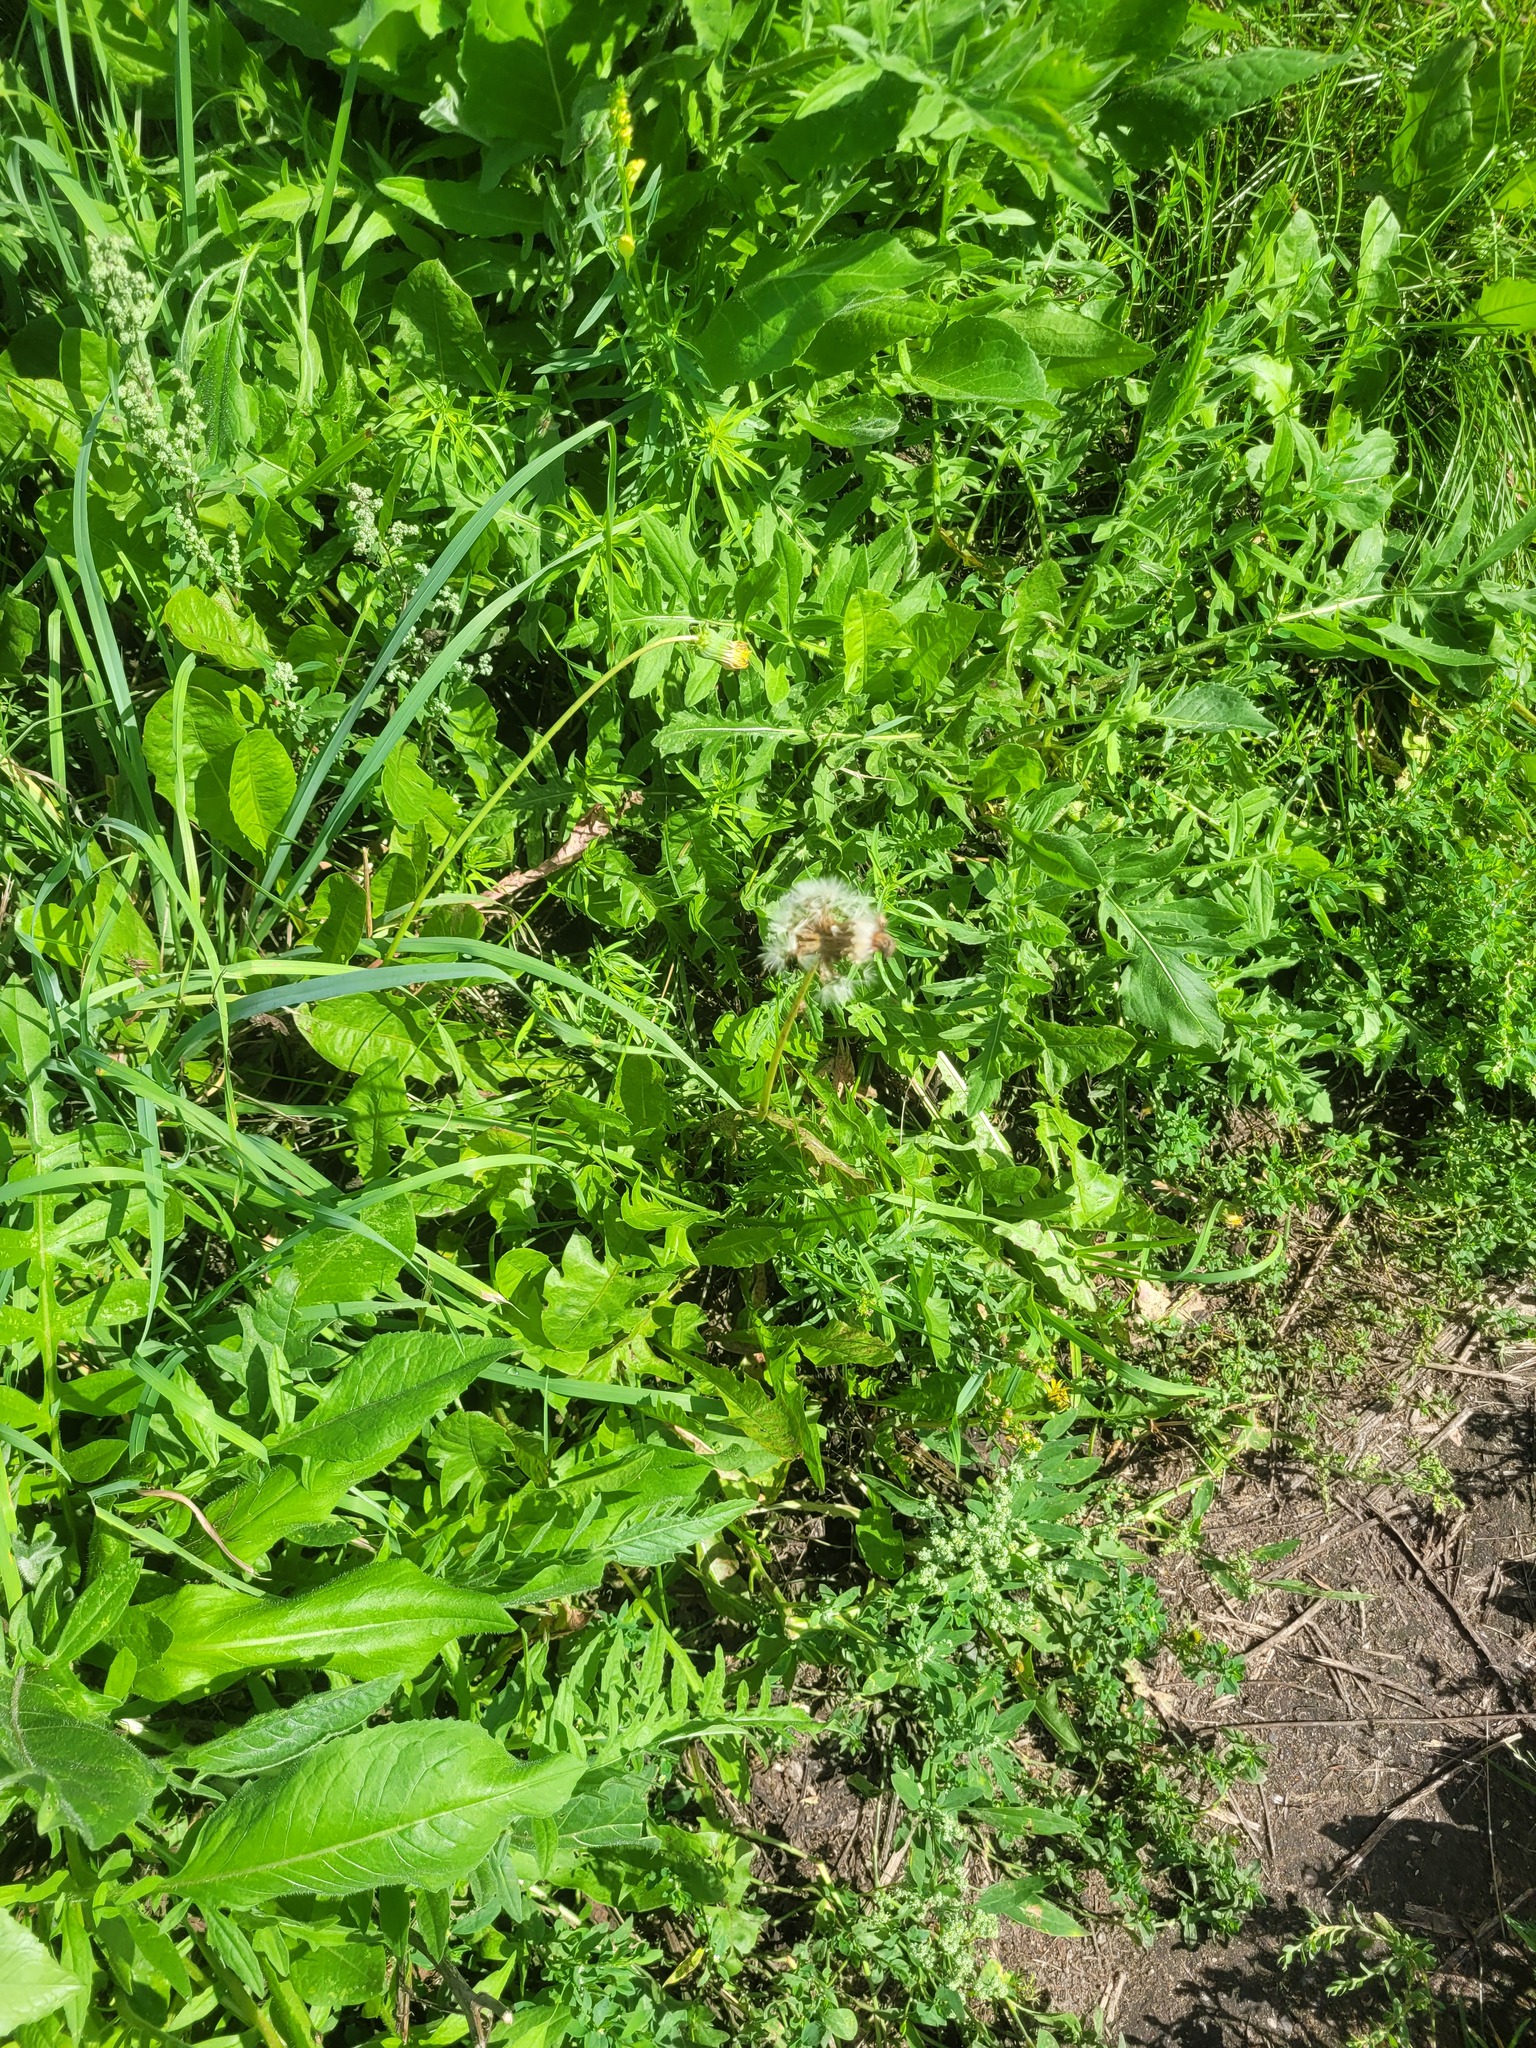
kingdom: Plantae
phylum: Tracheophyta
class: Magnoliopsida
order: Asterales
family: Asteraceae
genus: Taraxacum
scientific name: Taraxacum officinale
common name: Common dandelion
